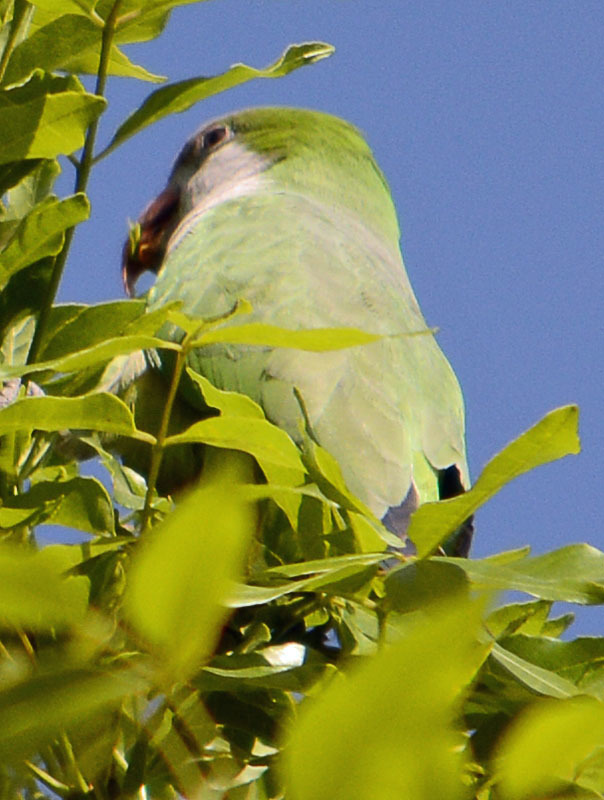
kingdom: Animalia
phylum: Chordata
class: Aves
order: Psittaciformes
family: Psittacidae
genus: Myiopsitta
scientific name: Myiopsitta monachus
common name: Monk parakeet
